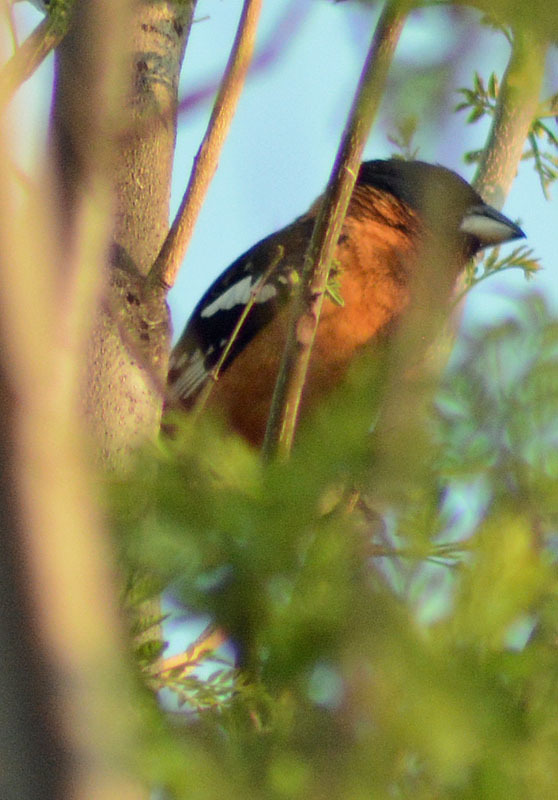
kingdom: Animalia
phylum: Chordata
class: Aves
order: Passeriformes
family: Cardinalidae
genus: Pheucticus
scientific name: Pheucticus melanocephalus
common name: Black-headed grosbeak
